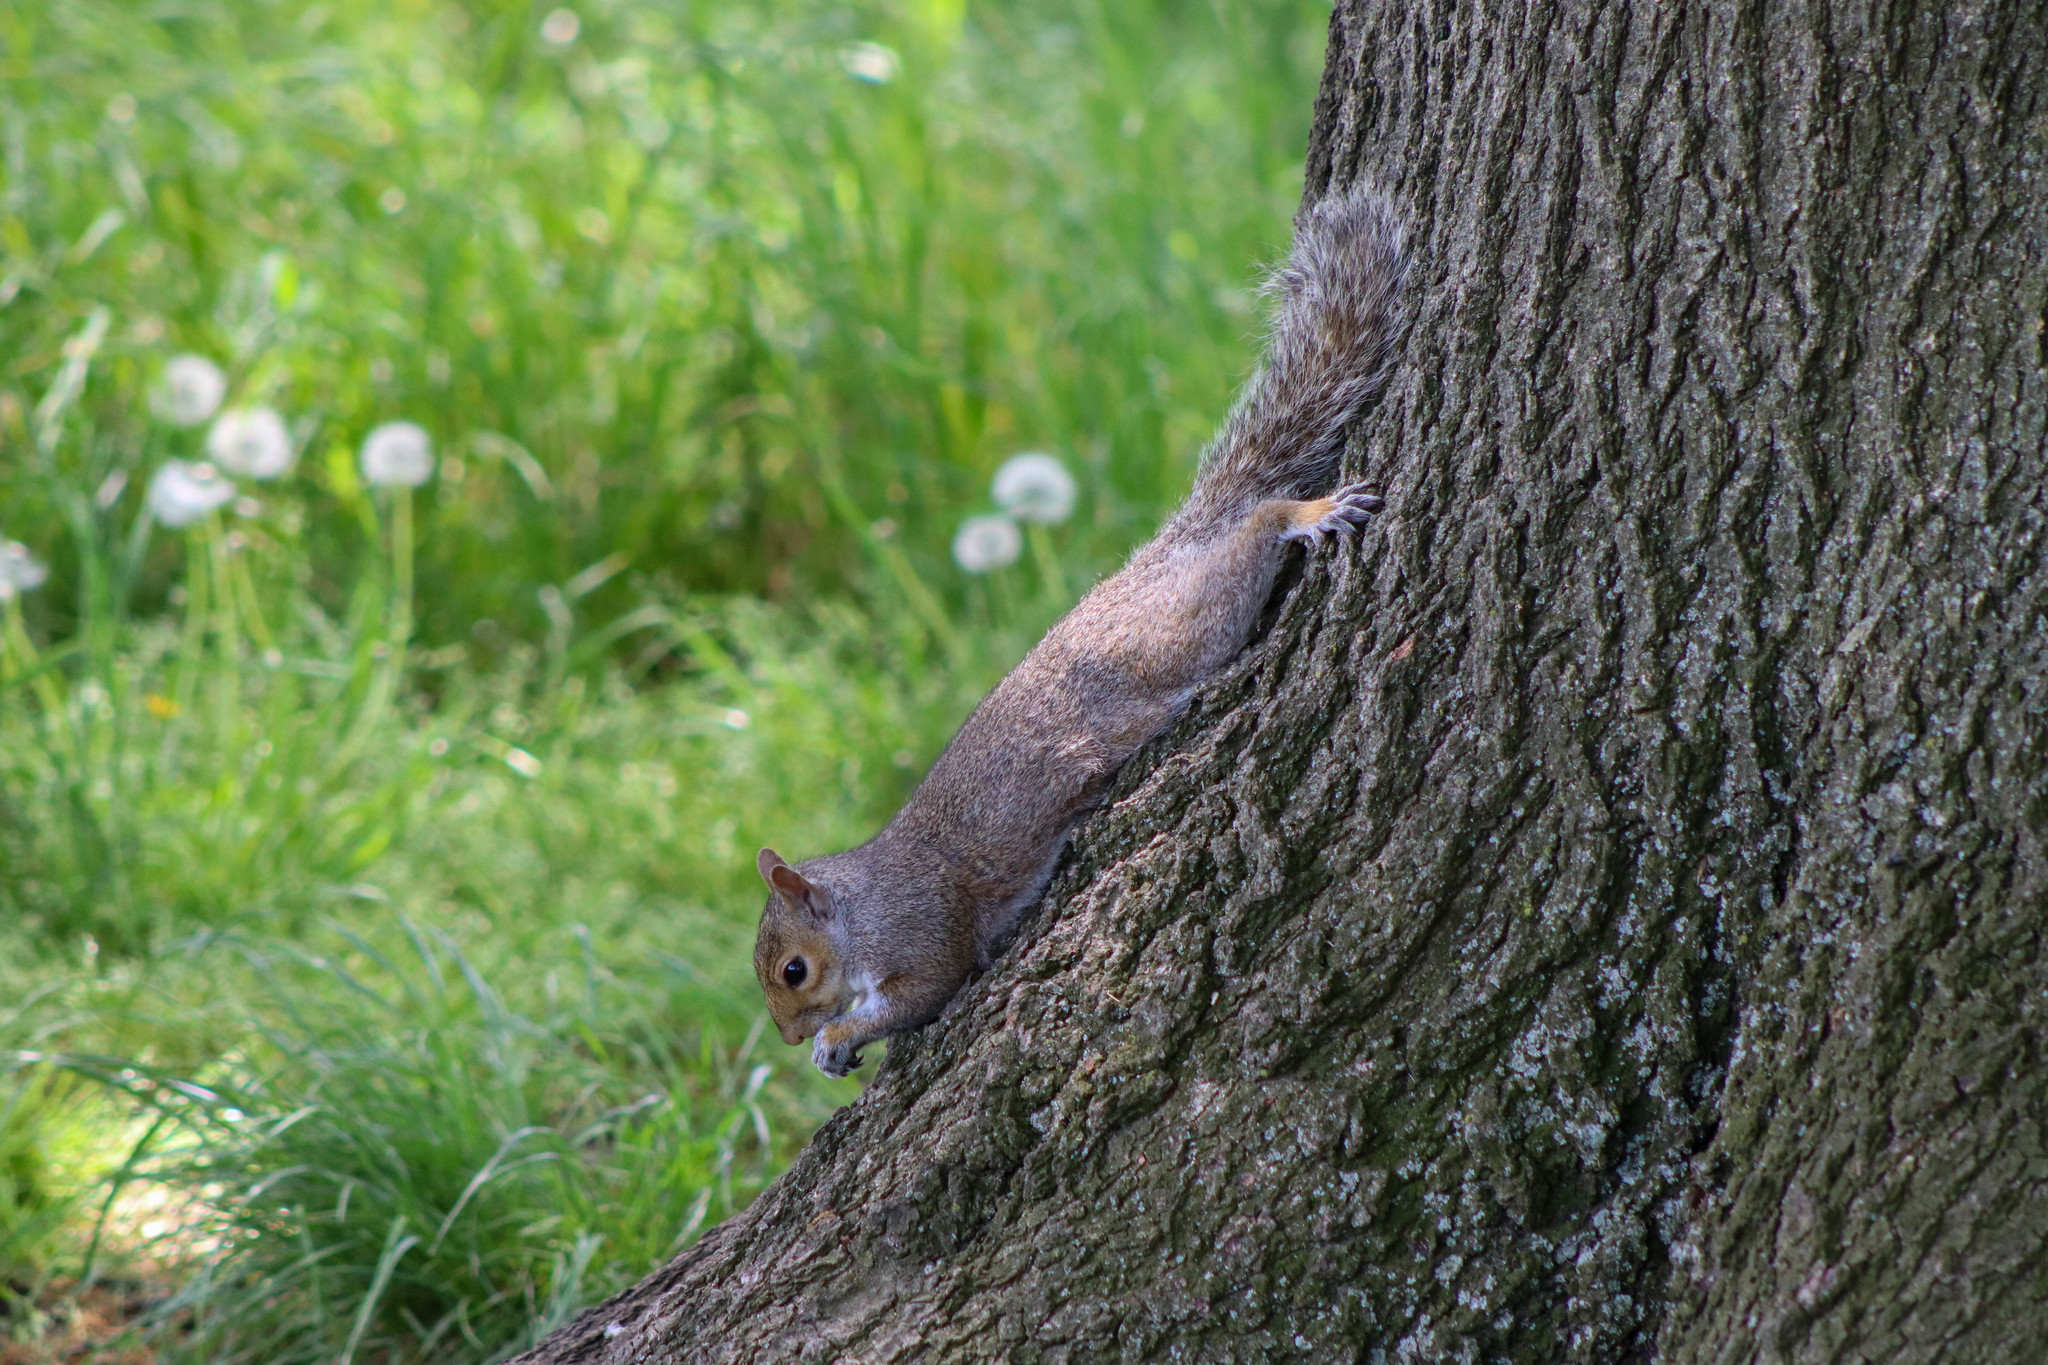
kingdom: Animalia
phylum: Chordata
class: Mammalia
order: Rodentia
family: Sciuridae
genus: Sciurus
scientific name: Sciurus carolinensis
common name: Eastern gray squirrel
